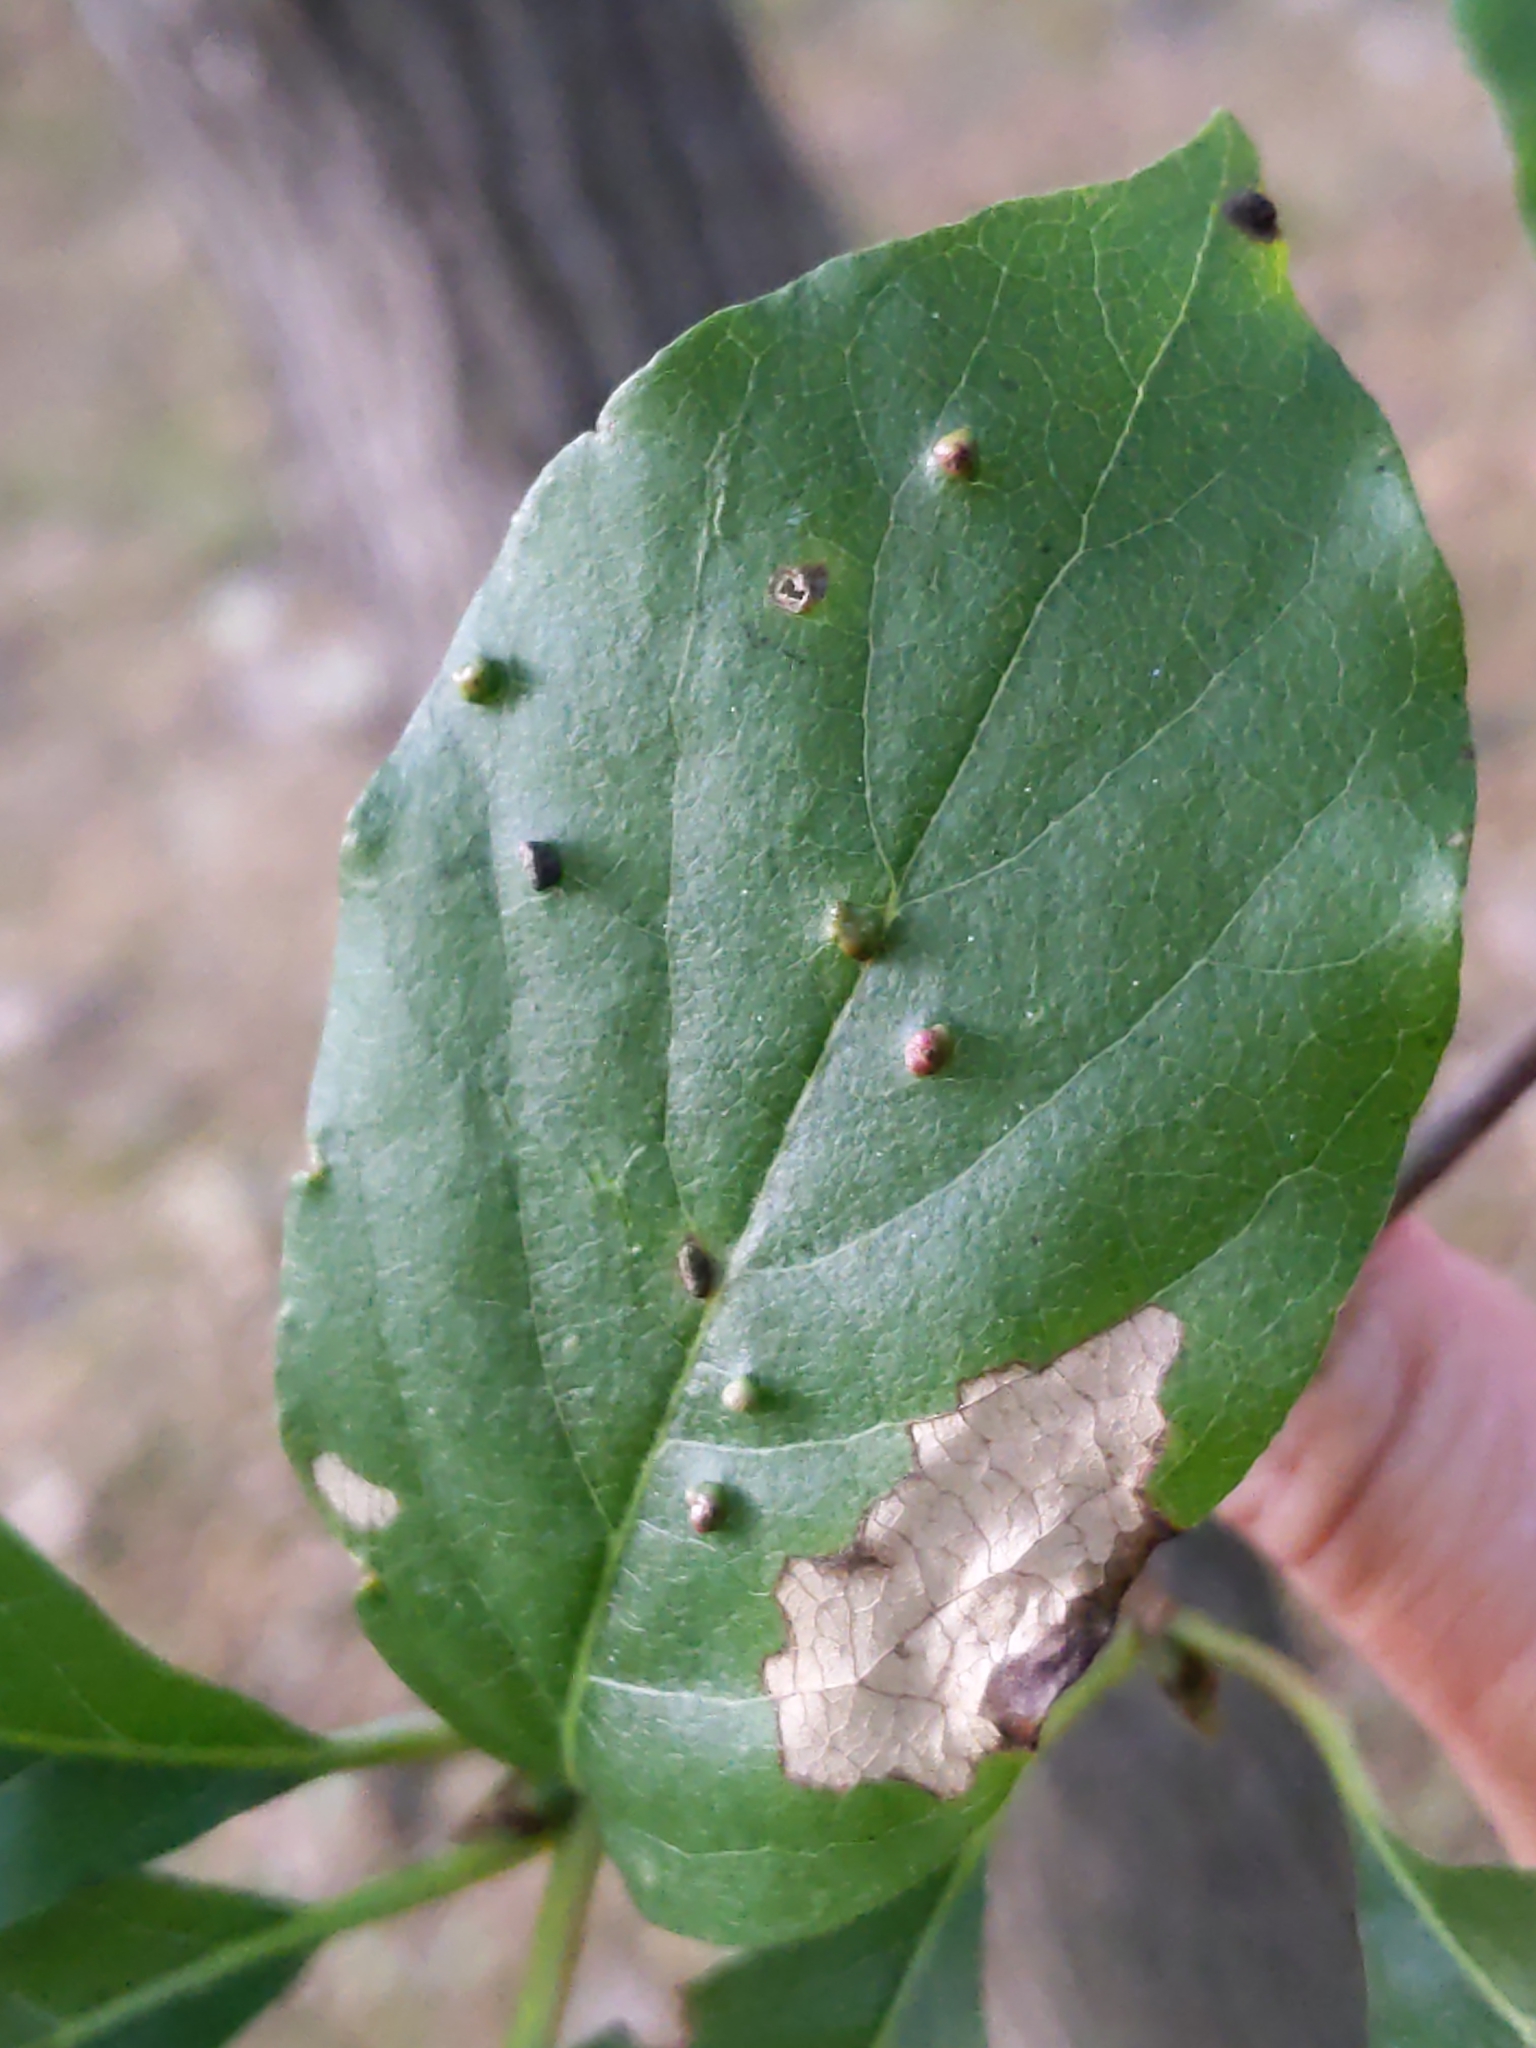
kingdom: Animalia
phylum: Arthropoda
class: Arachnida
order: Trombidiformes
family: Eriophyidae
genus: Aceria
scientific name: Aceria
